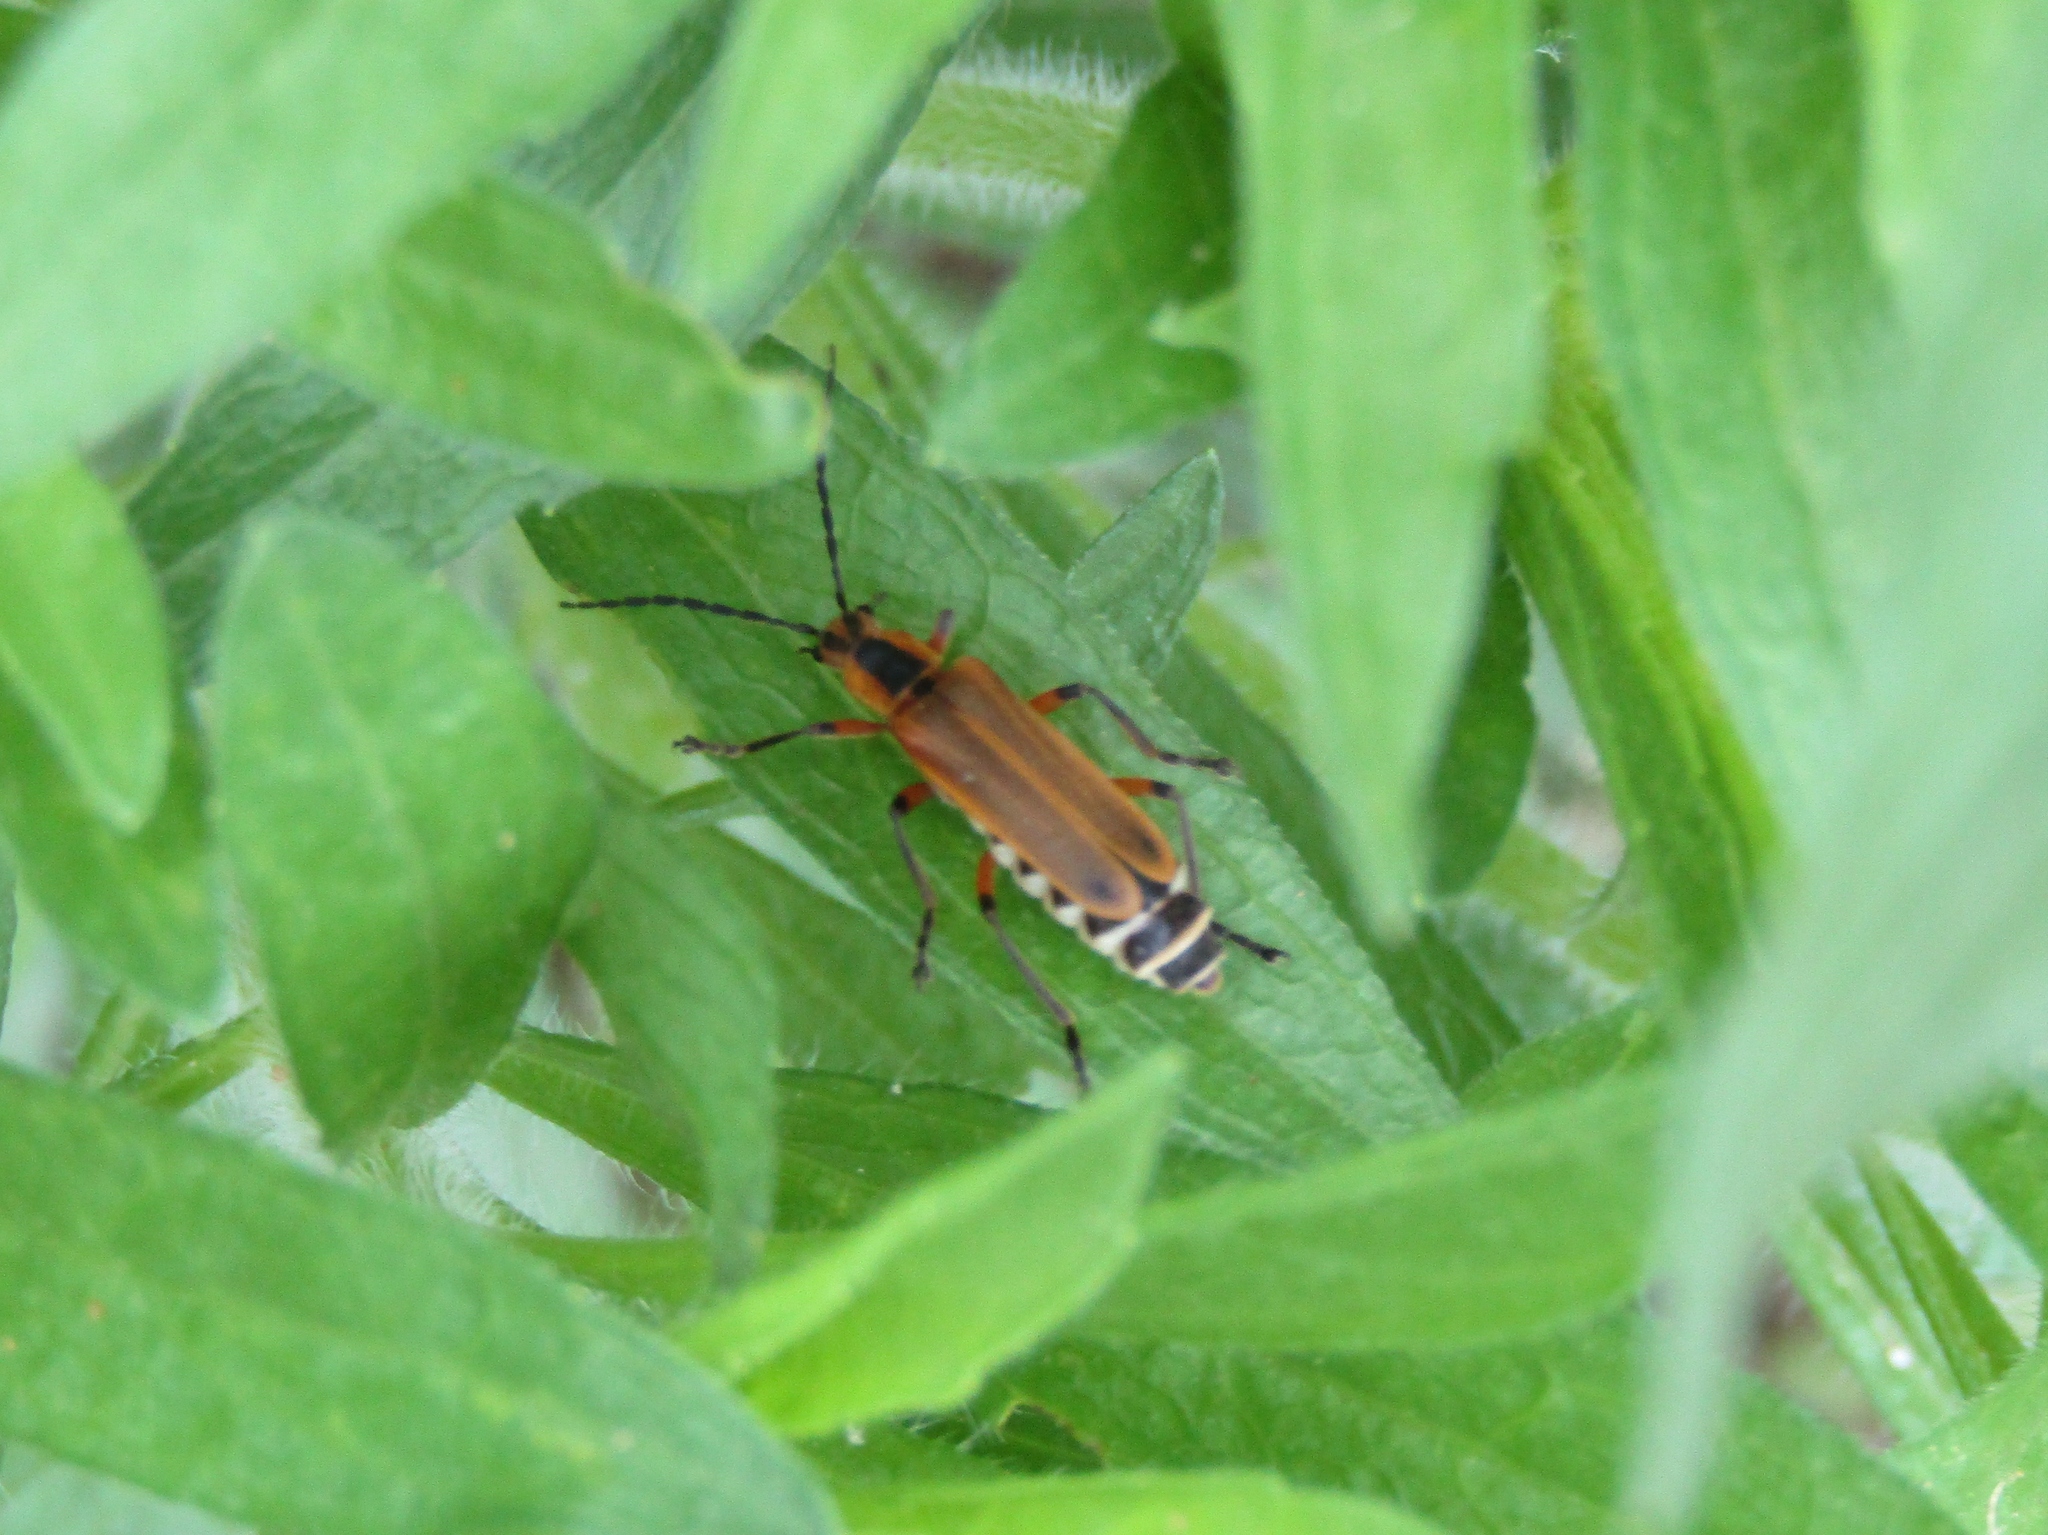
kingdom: Animalia
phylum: Arthropoda
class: Insecta
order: Coleoptera
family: Cantharidae
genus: Chauliognathus
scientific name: Chauliognathus marginatus
